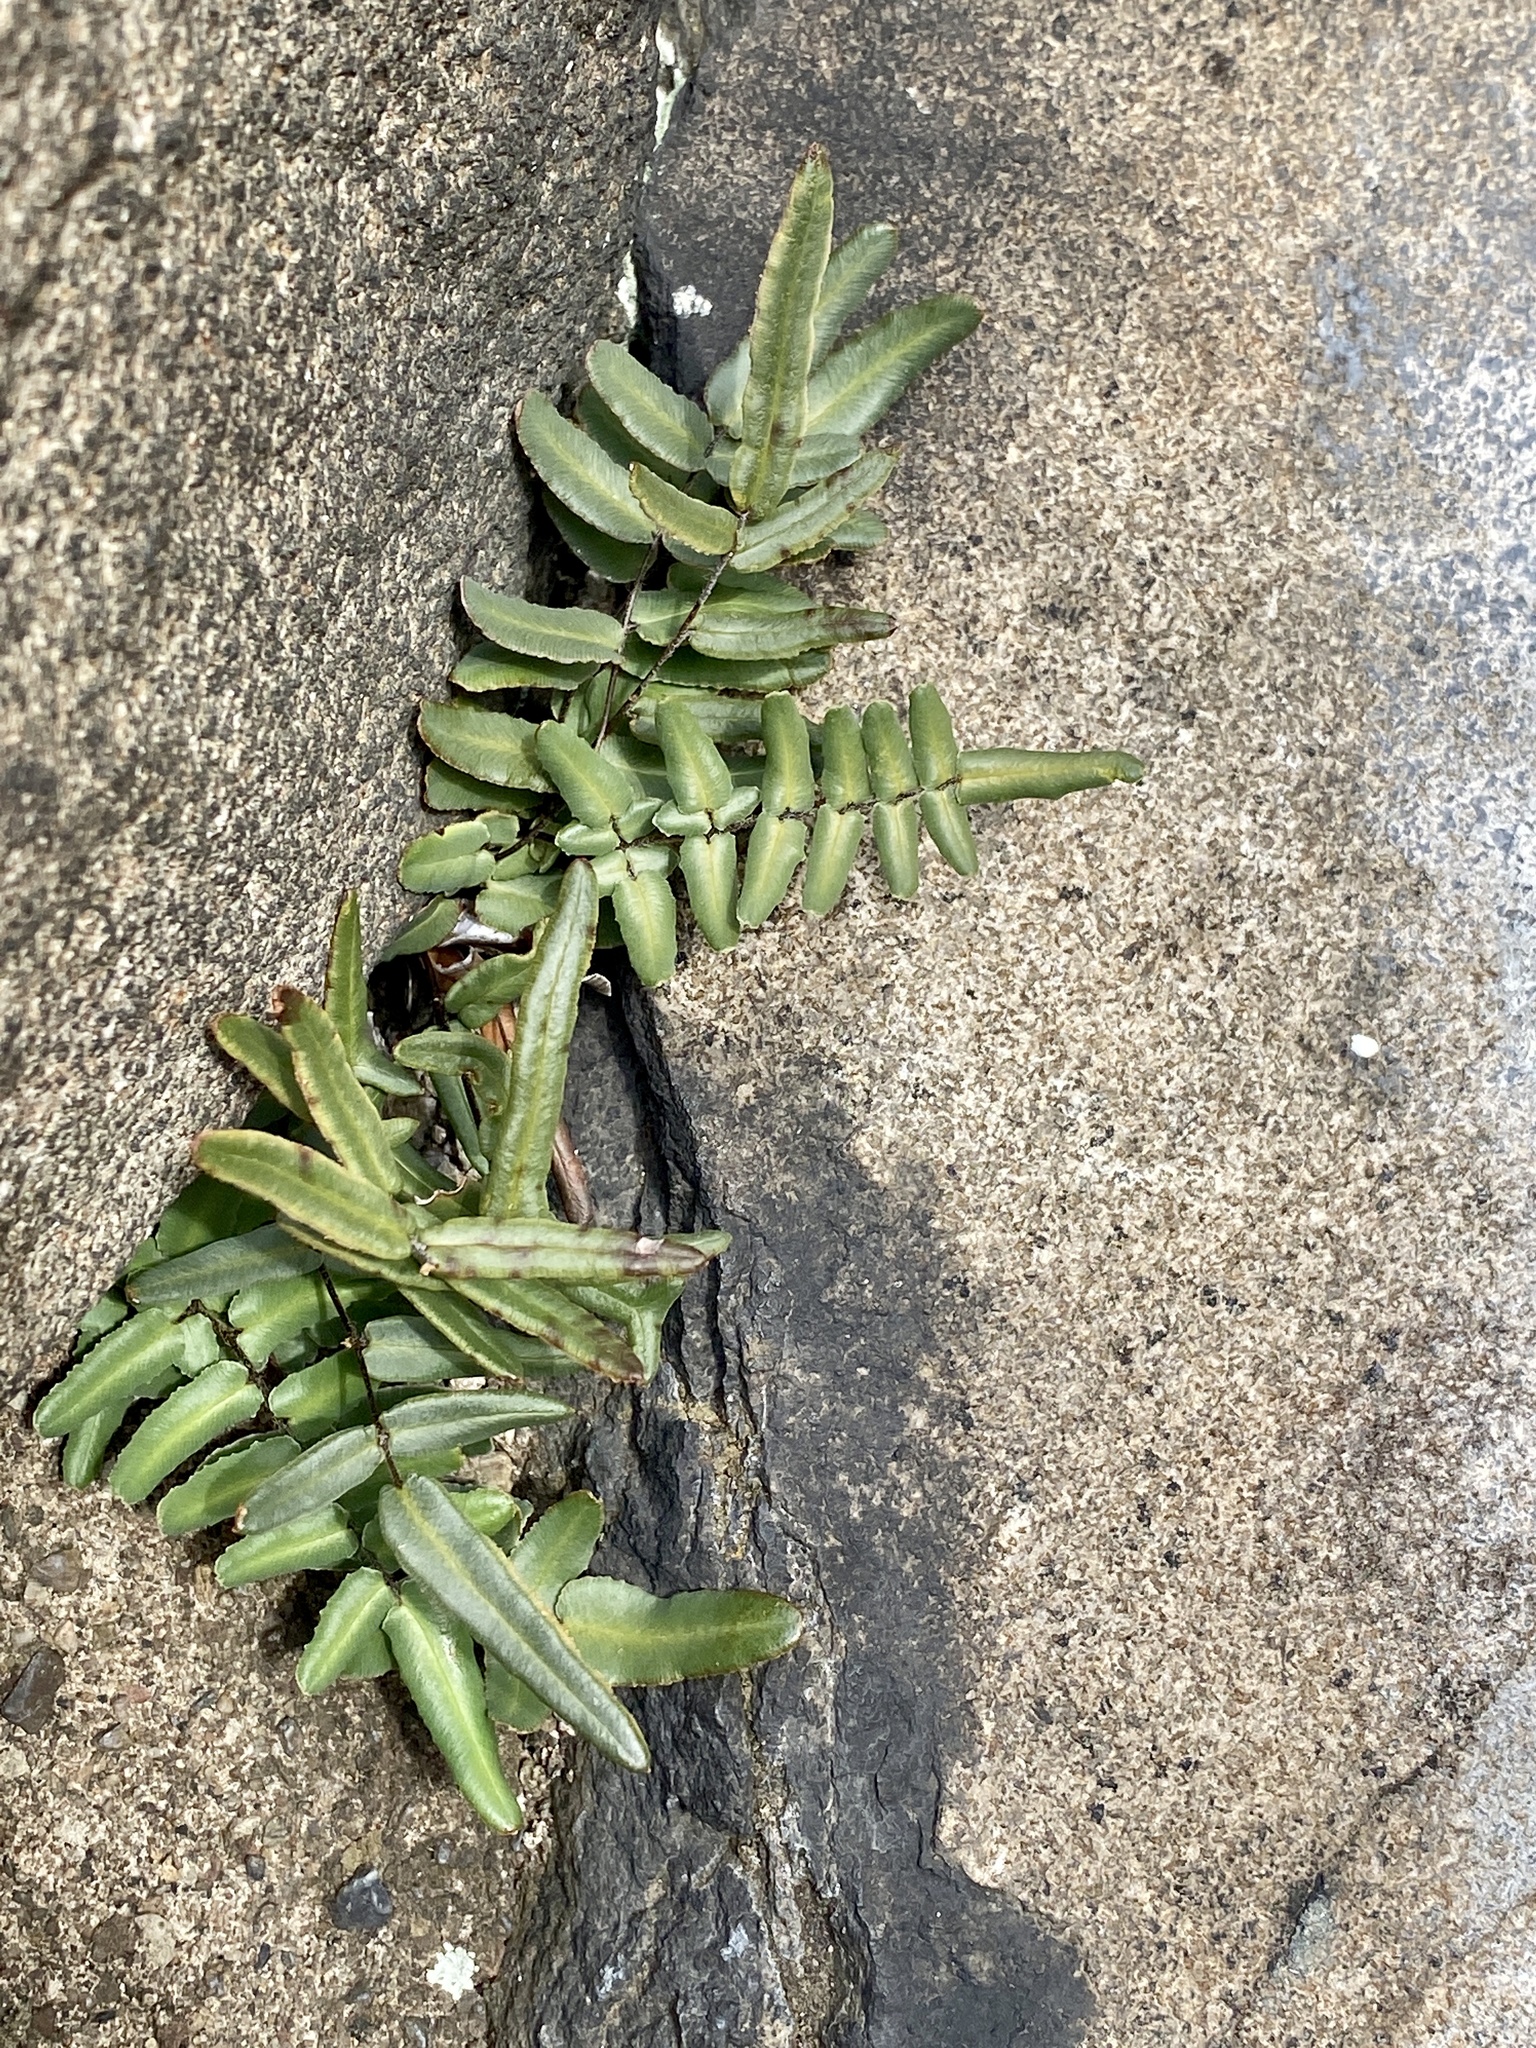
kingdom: Plantae
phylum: Tracheophyta
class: Polypodiopsida
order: Polypodiales
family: Pteridaceae
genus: Pellaea
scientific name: Pellaea atropurpurea
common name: Hairy cliffbrake
